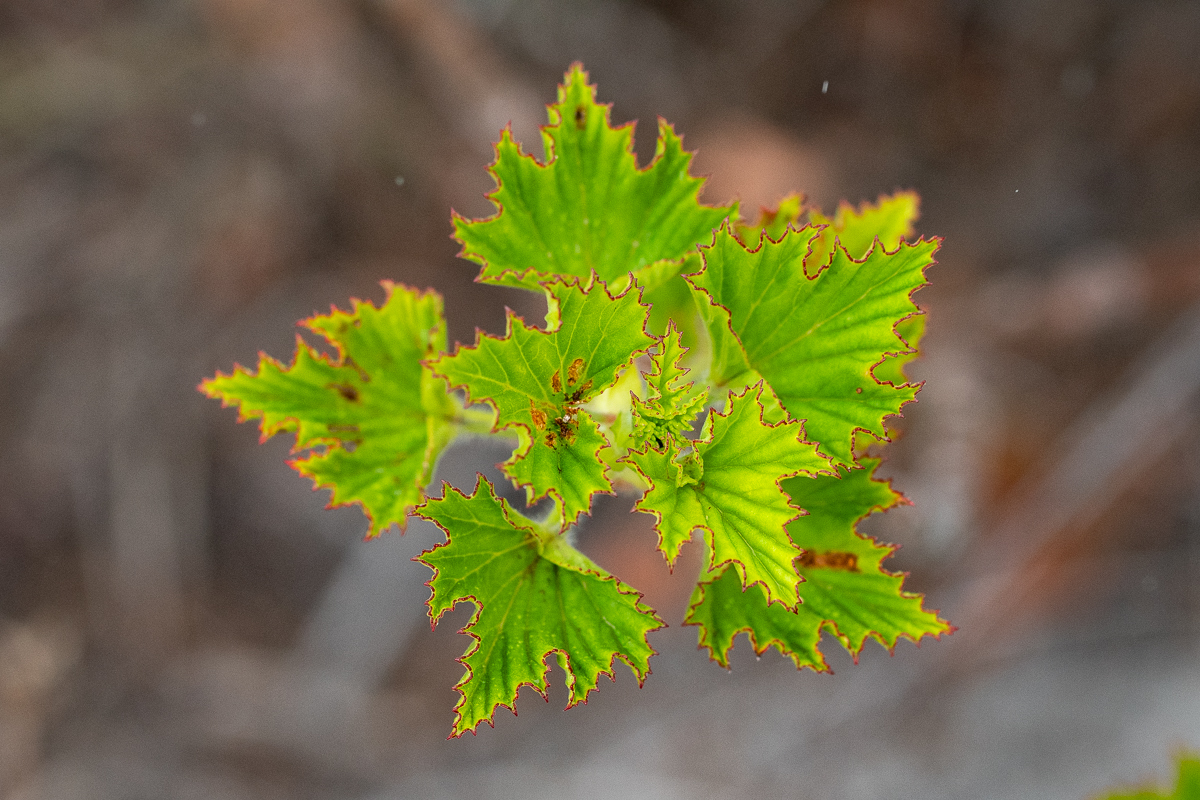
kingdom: Plantae
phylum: Tracheophyta
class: Magnoliopsida
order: Geraniales
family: Geraniaceae
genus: Pelargonium
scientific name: Pelargonium cucullatum
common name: Tree pelargonium
